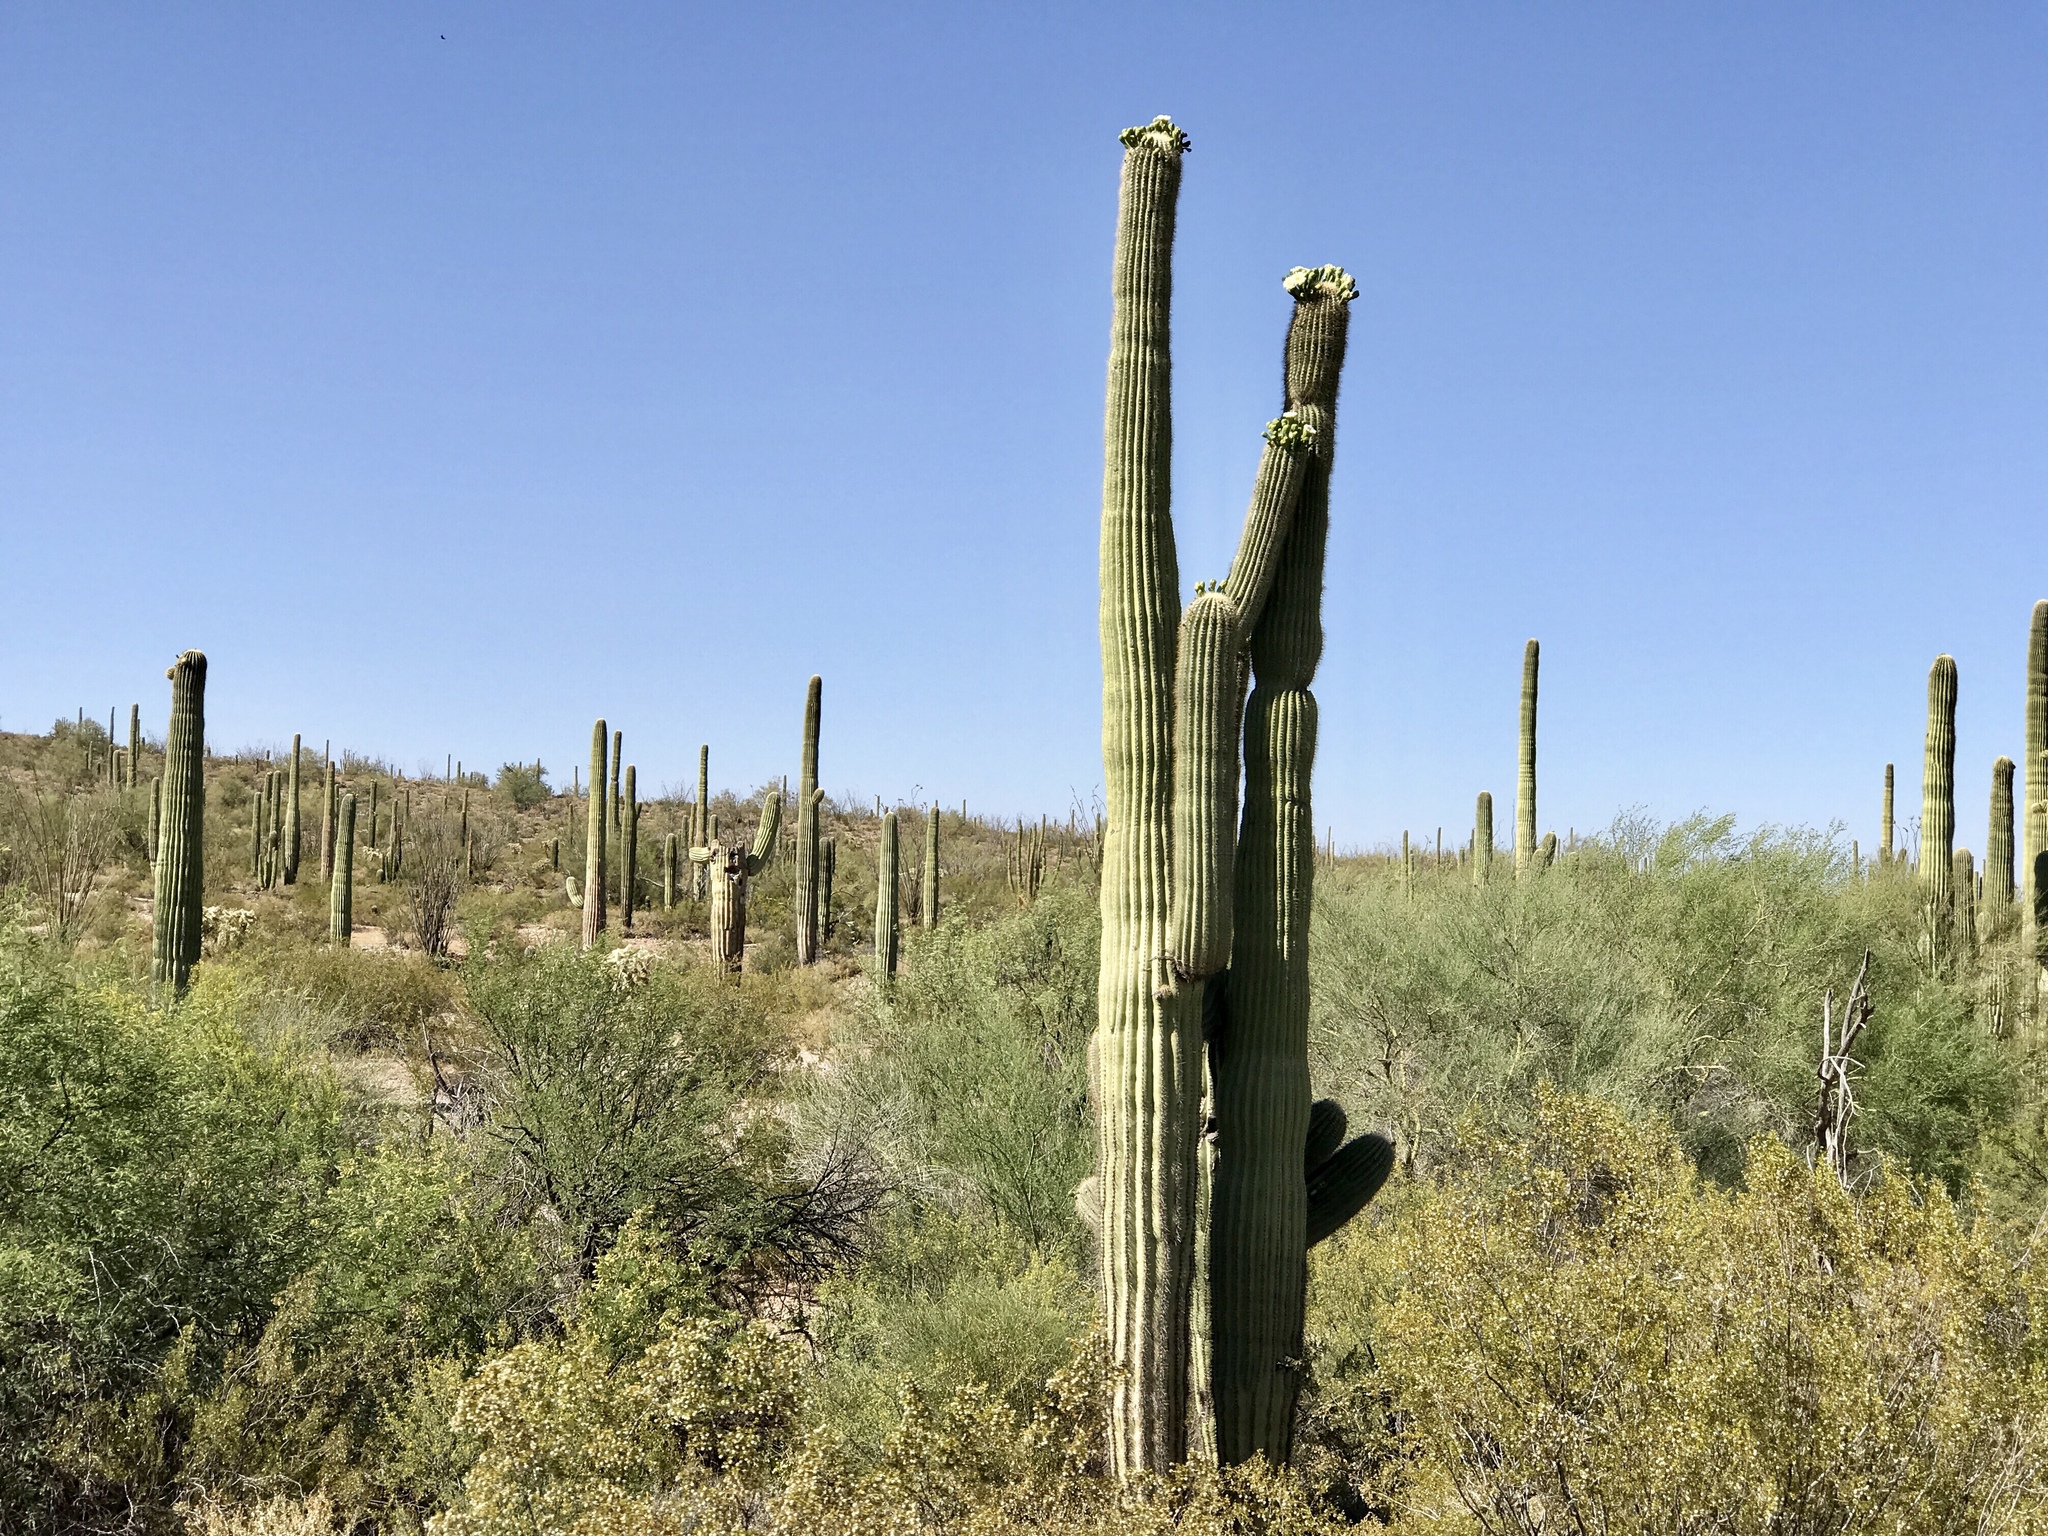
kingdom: Plantae
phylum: Tracheophyta
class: Magnoliopsida
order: Caryophyllales
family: Cactaceae
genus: Carnegiea
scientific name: Carnegiea gigantea
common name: Saguaro
